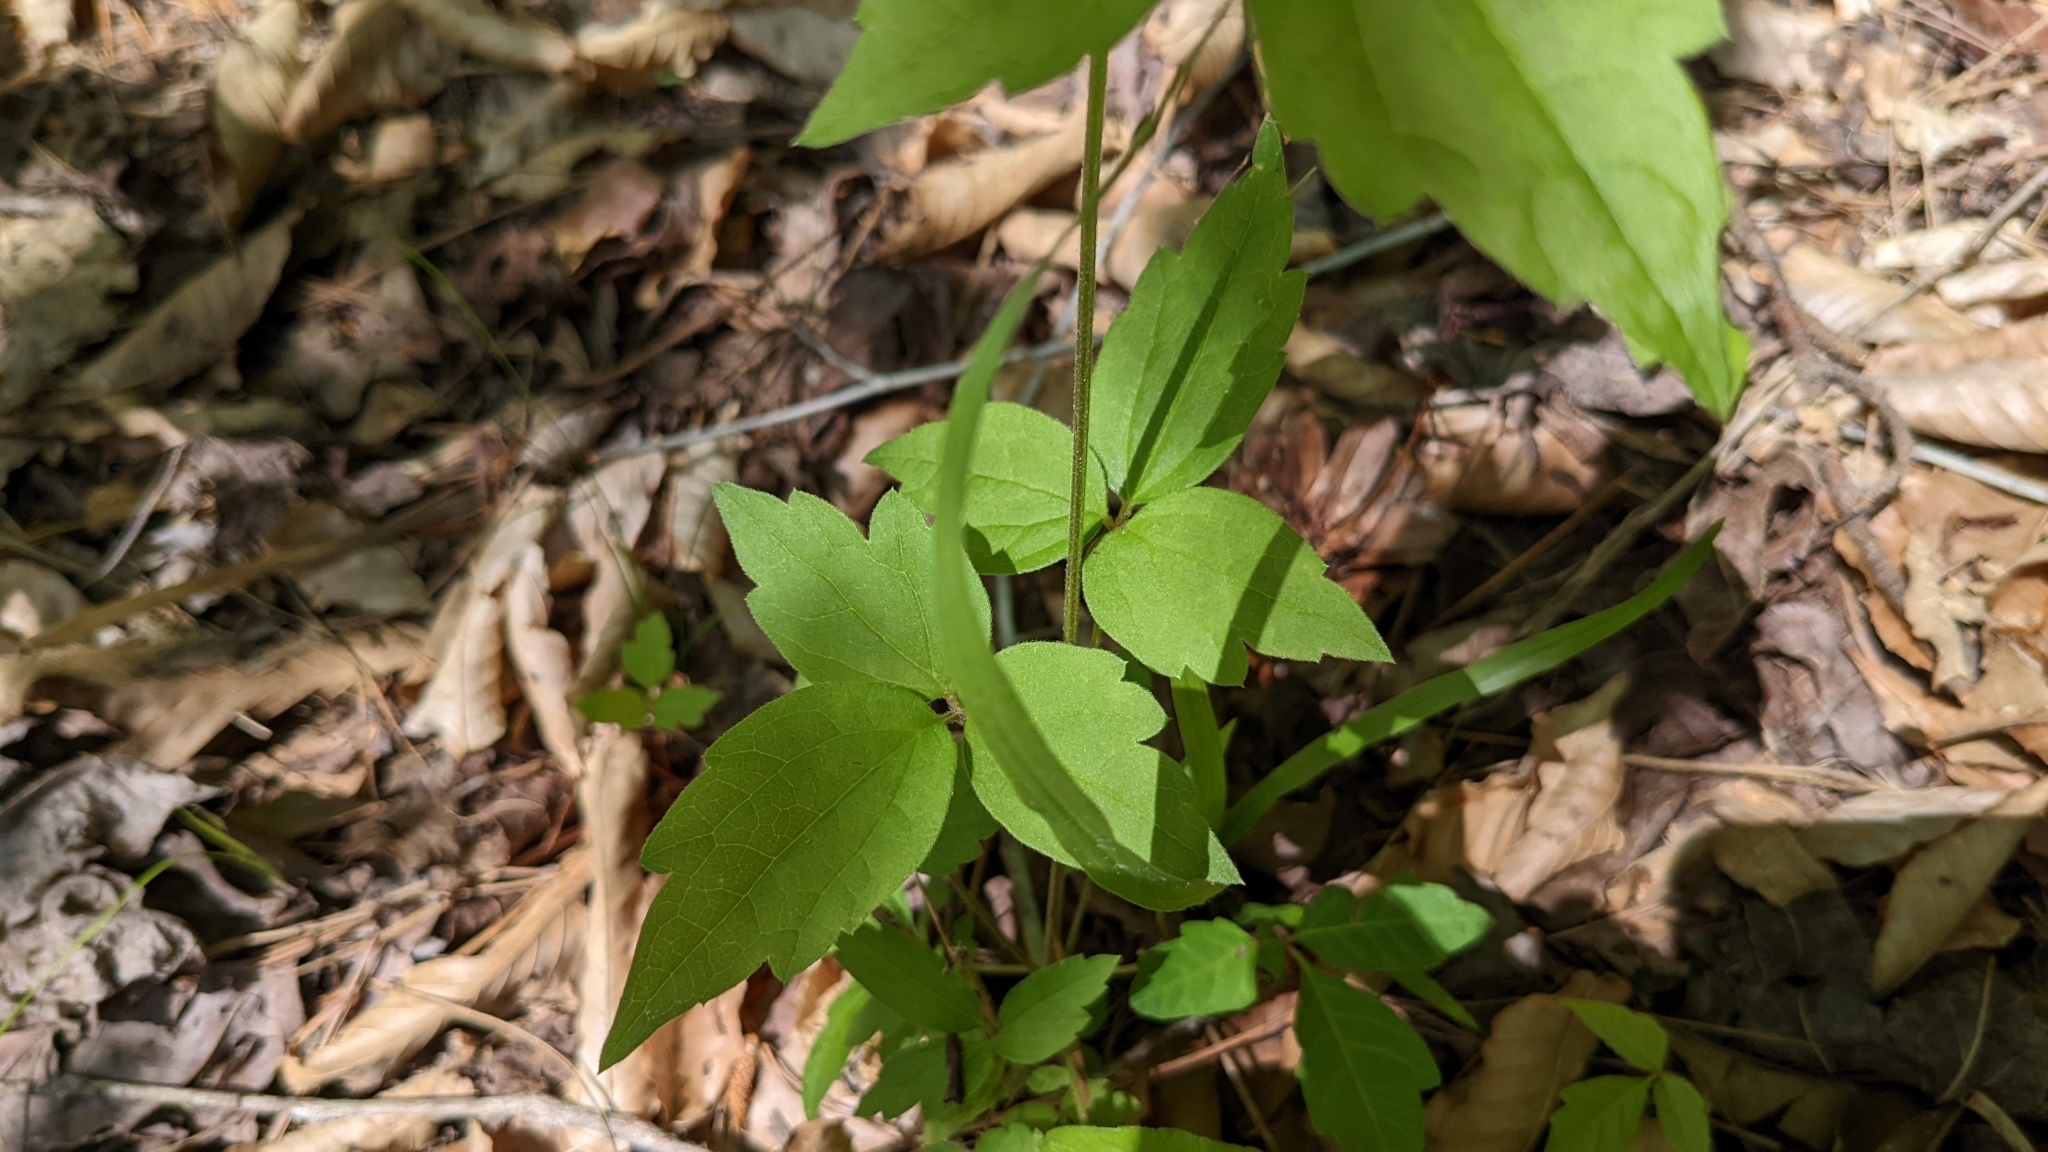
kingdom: Plantae
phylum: Tracheophyta
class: Magnoliopsida
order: Ranunculales
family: Ranunculaceae
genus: Clematis
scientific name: Clematis virginiana
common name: Virgin's-bower
